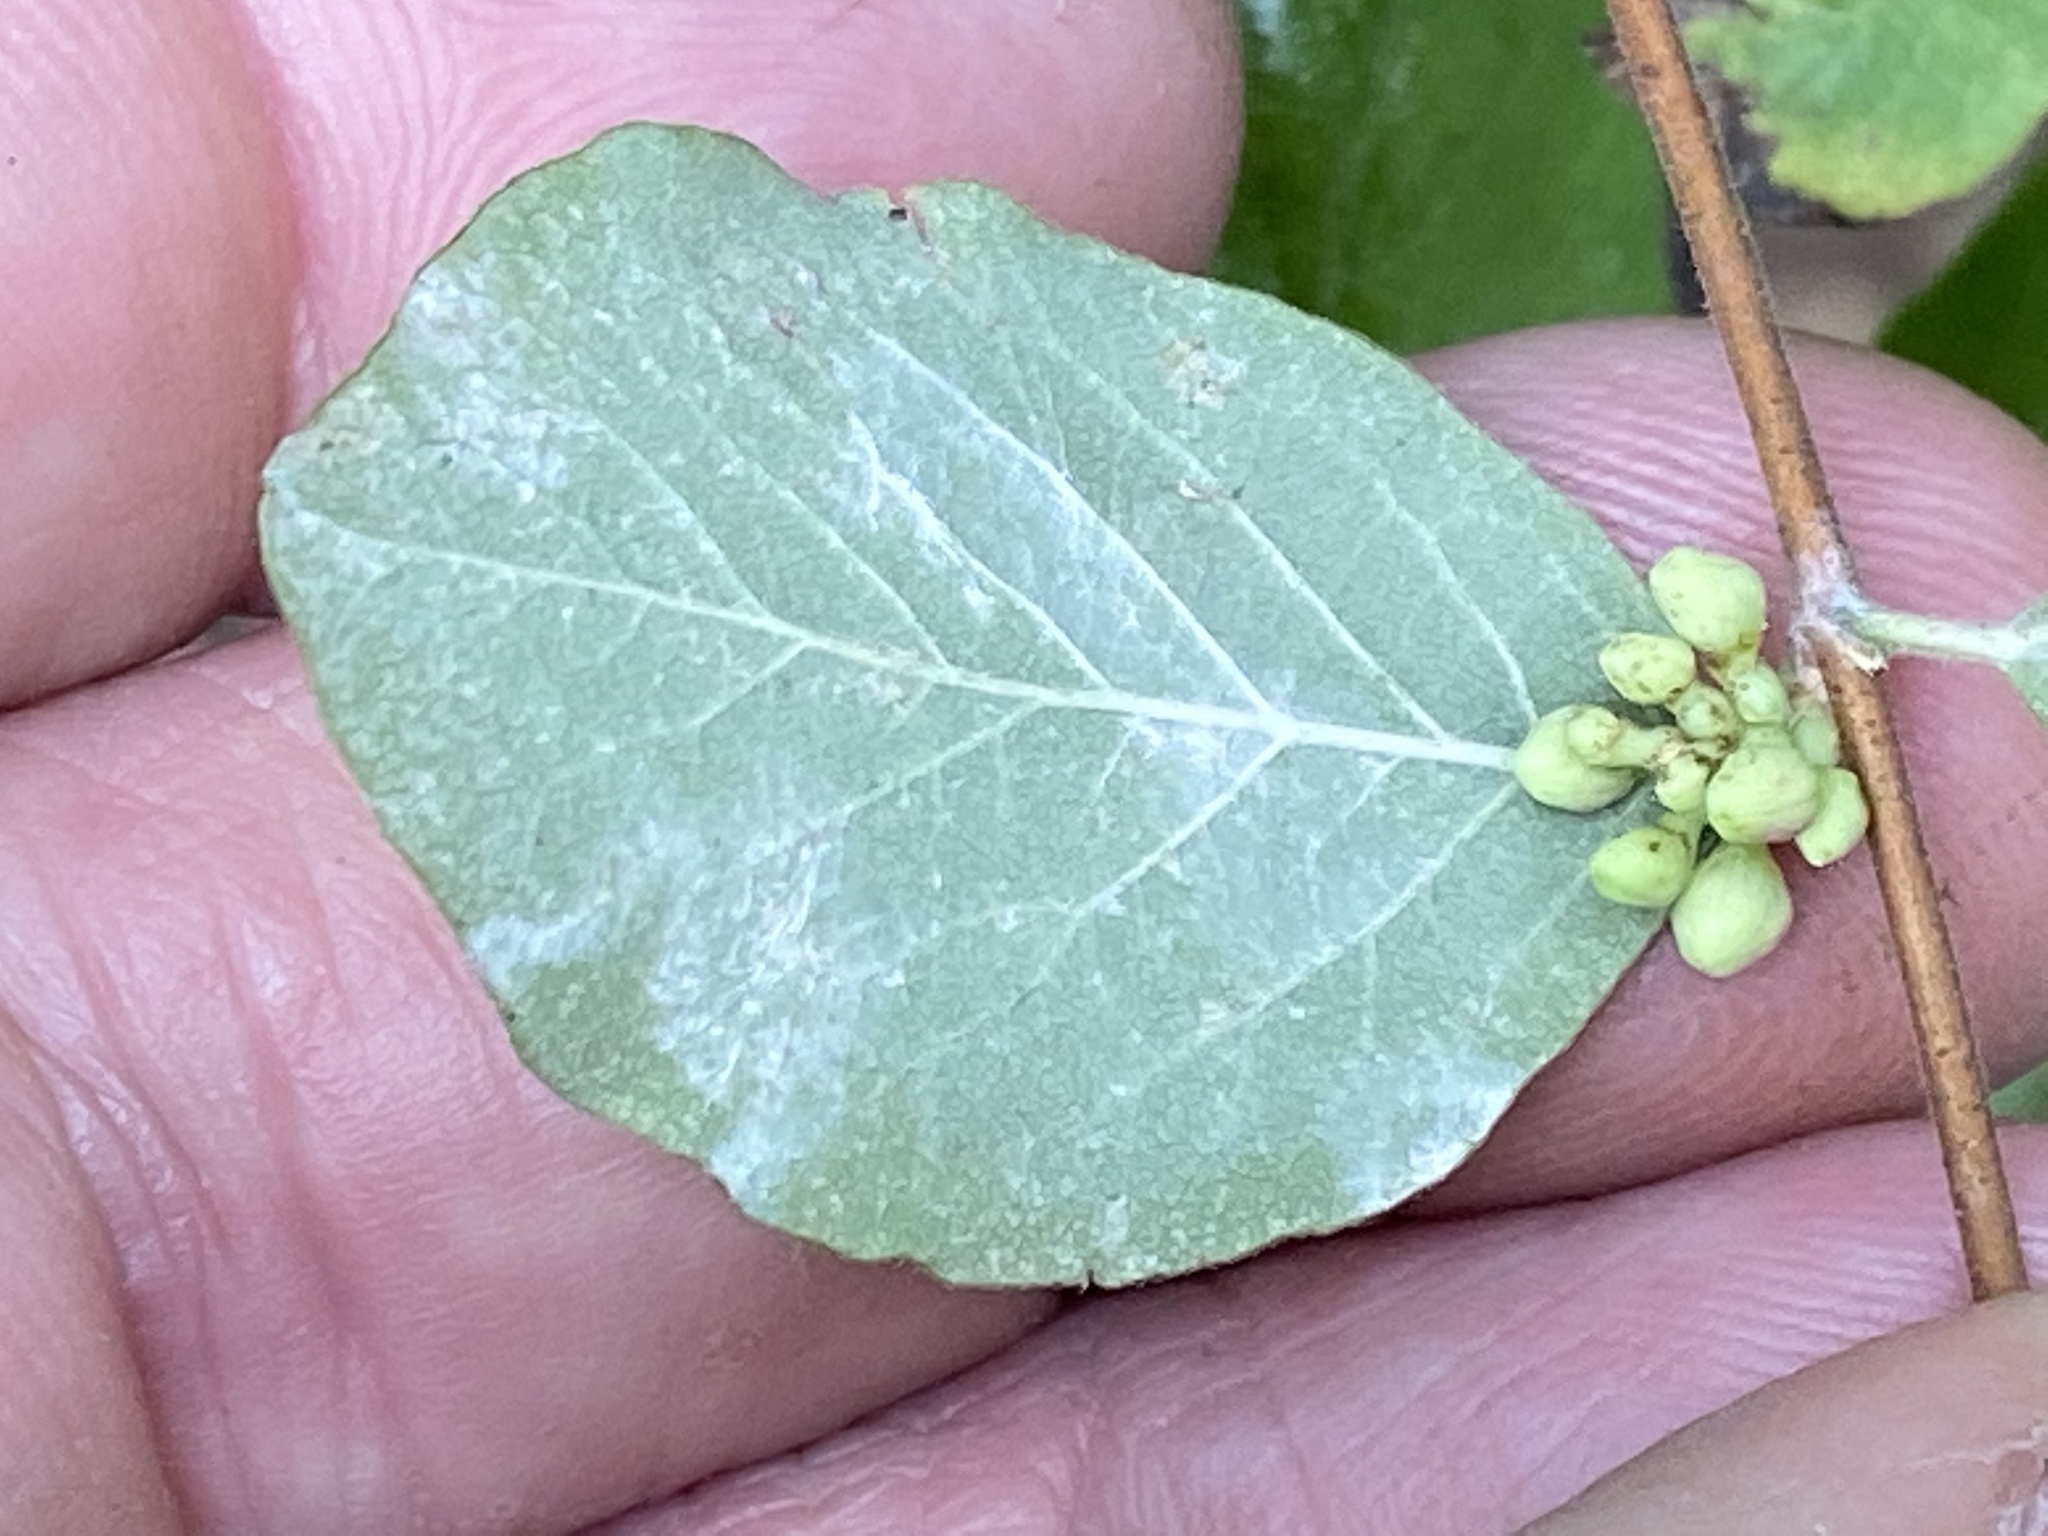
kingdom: Plantae
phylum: Tracheophyta
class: Magnoliopsida
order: Dipsacales
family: Caprifoliaceae
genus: Symphoricarpos
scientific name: Symphoricarpos orbiculatus
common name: Coralberry
